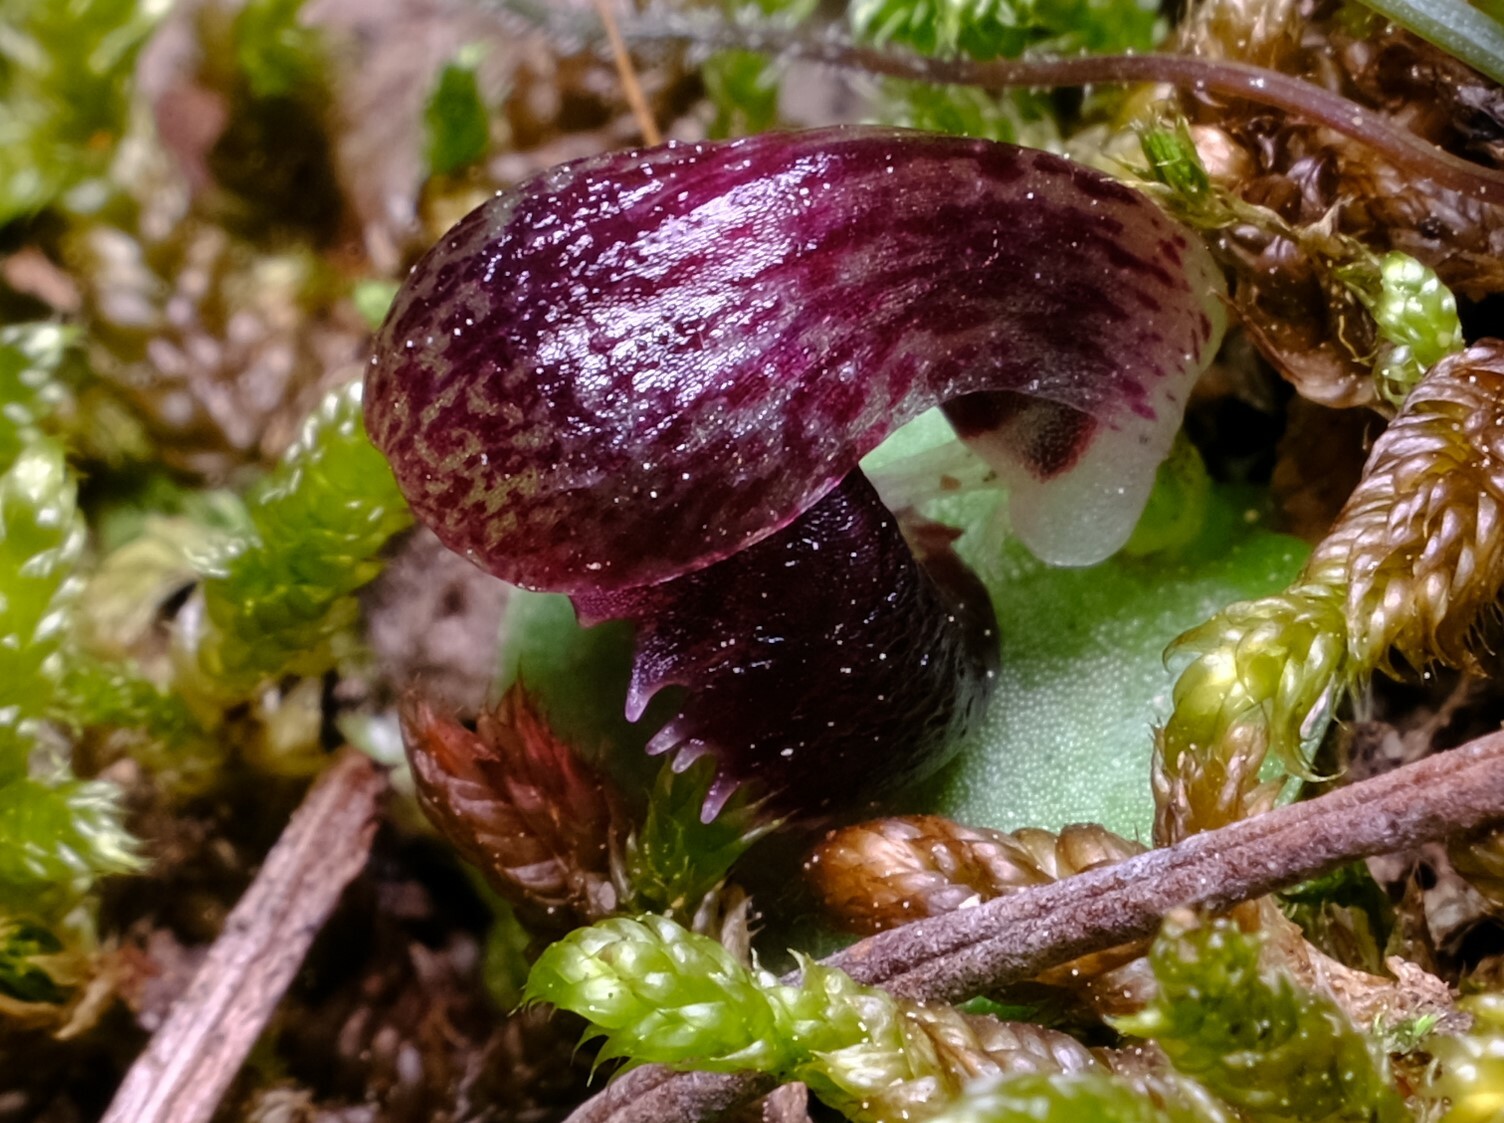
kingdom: Plantae
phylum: Tracheophyta
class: Liliopsida
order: Asparagales
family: Orchidaceae
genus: Corybas
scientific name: Corybas incurvus
